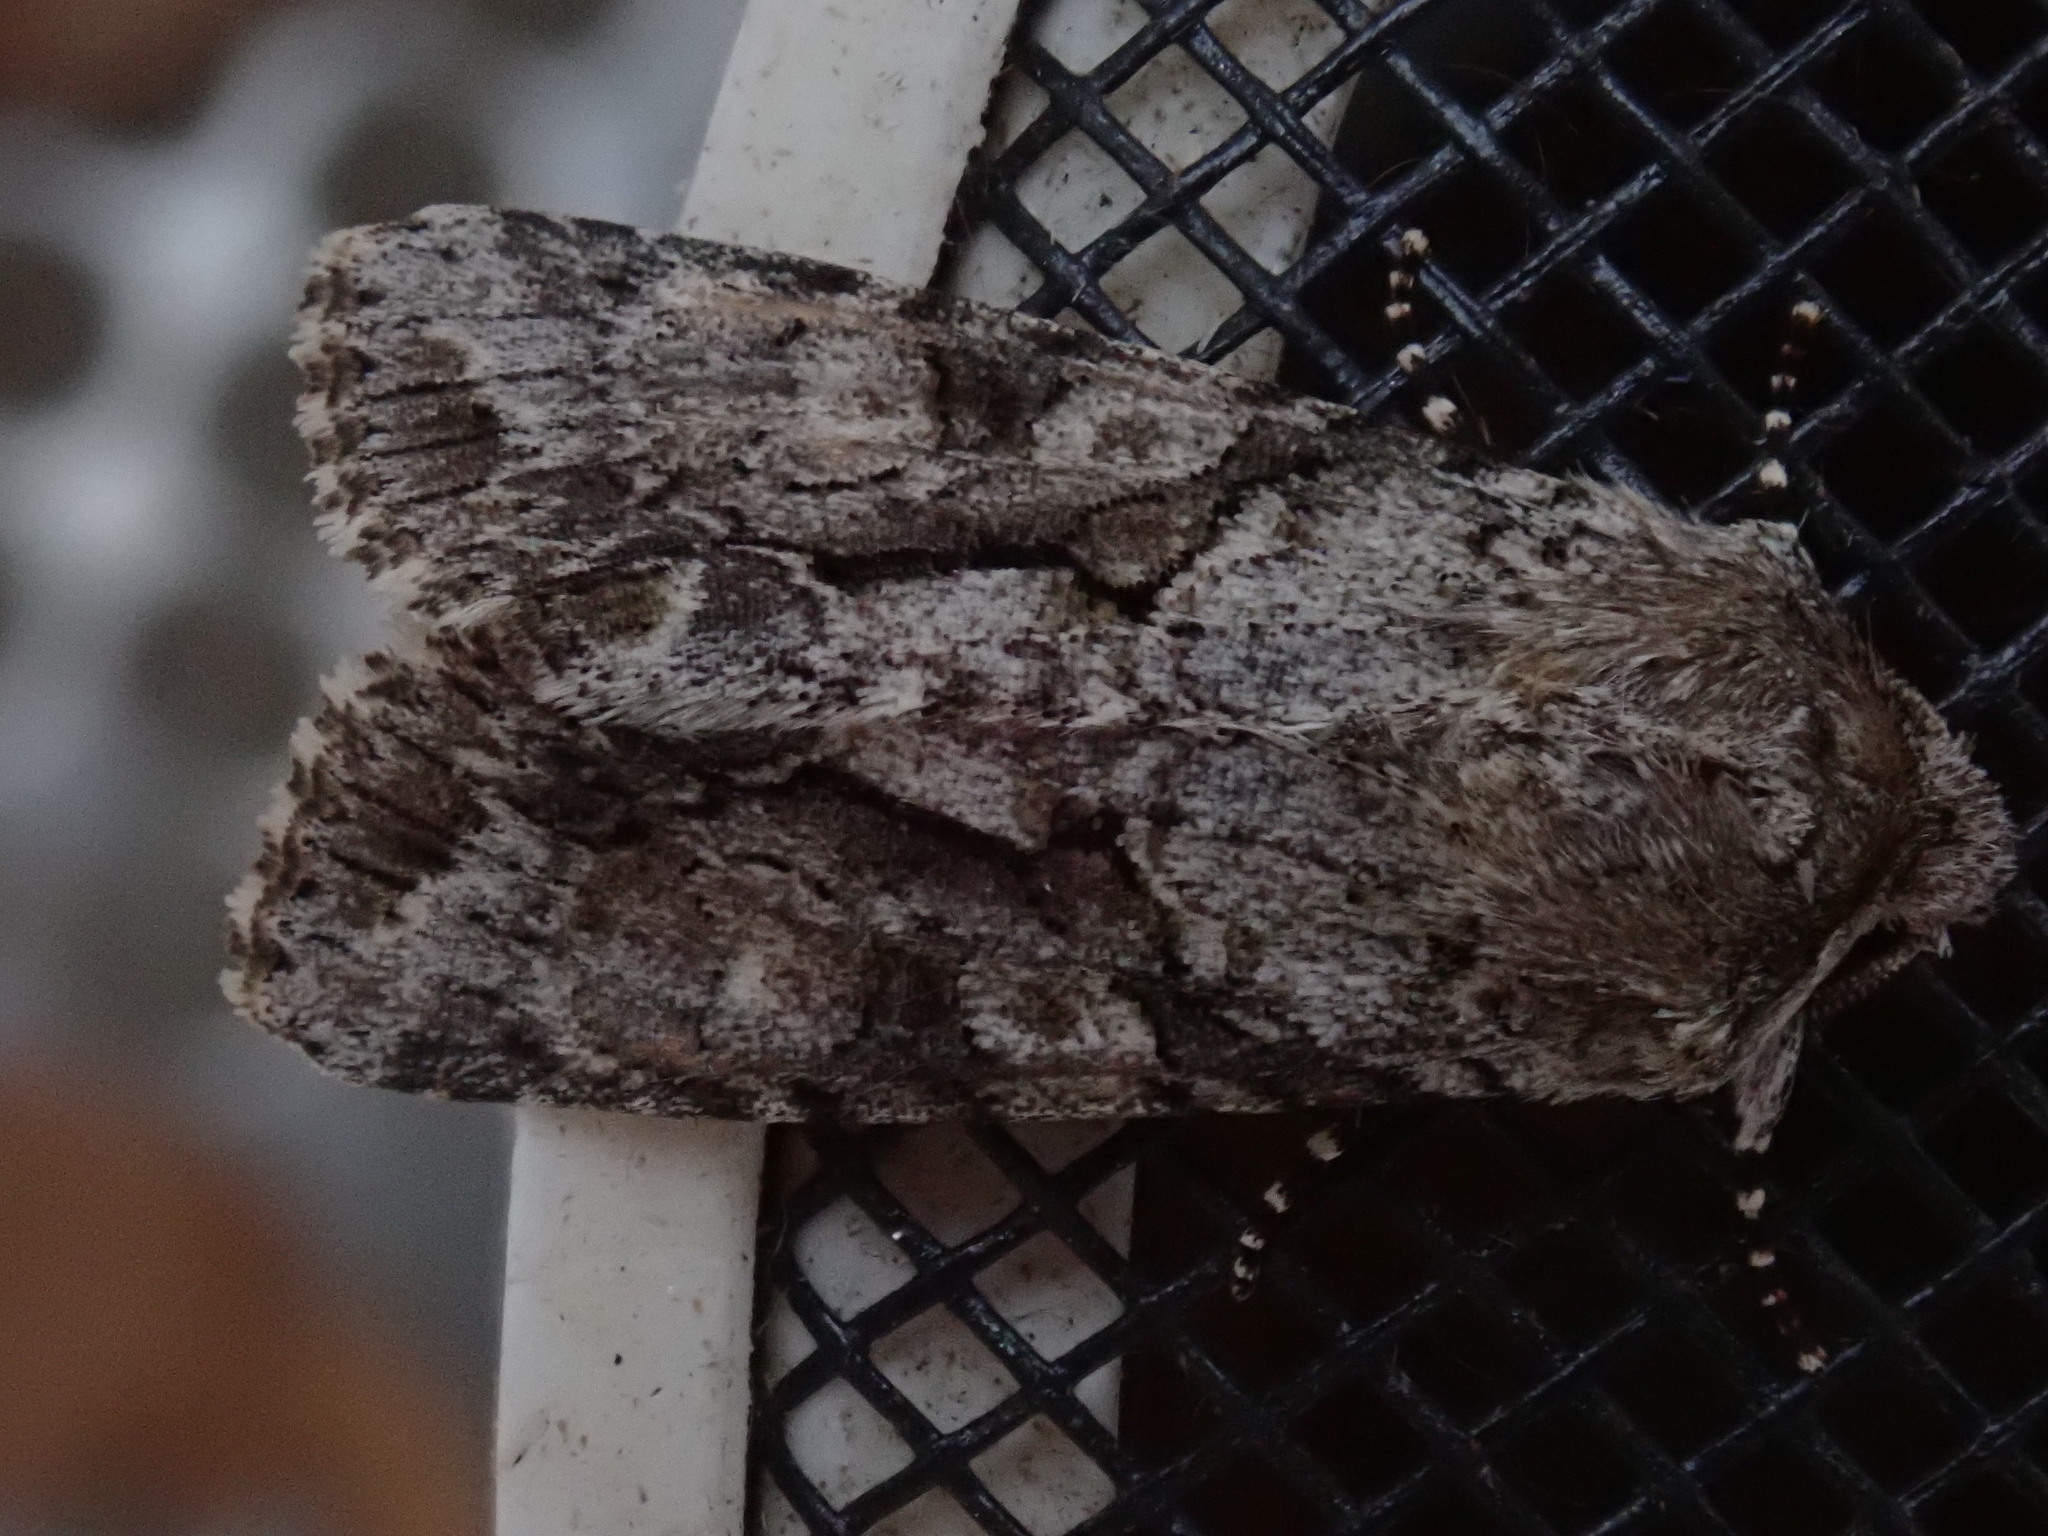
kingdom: Animalia
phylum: Arthropoda
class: Insecta
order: Lepidoptera
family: Noctuidae
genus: Achatia
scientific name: Achatia distincta
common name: Distinct quaker
